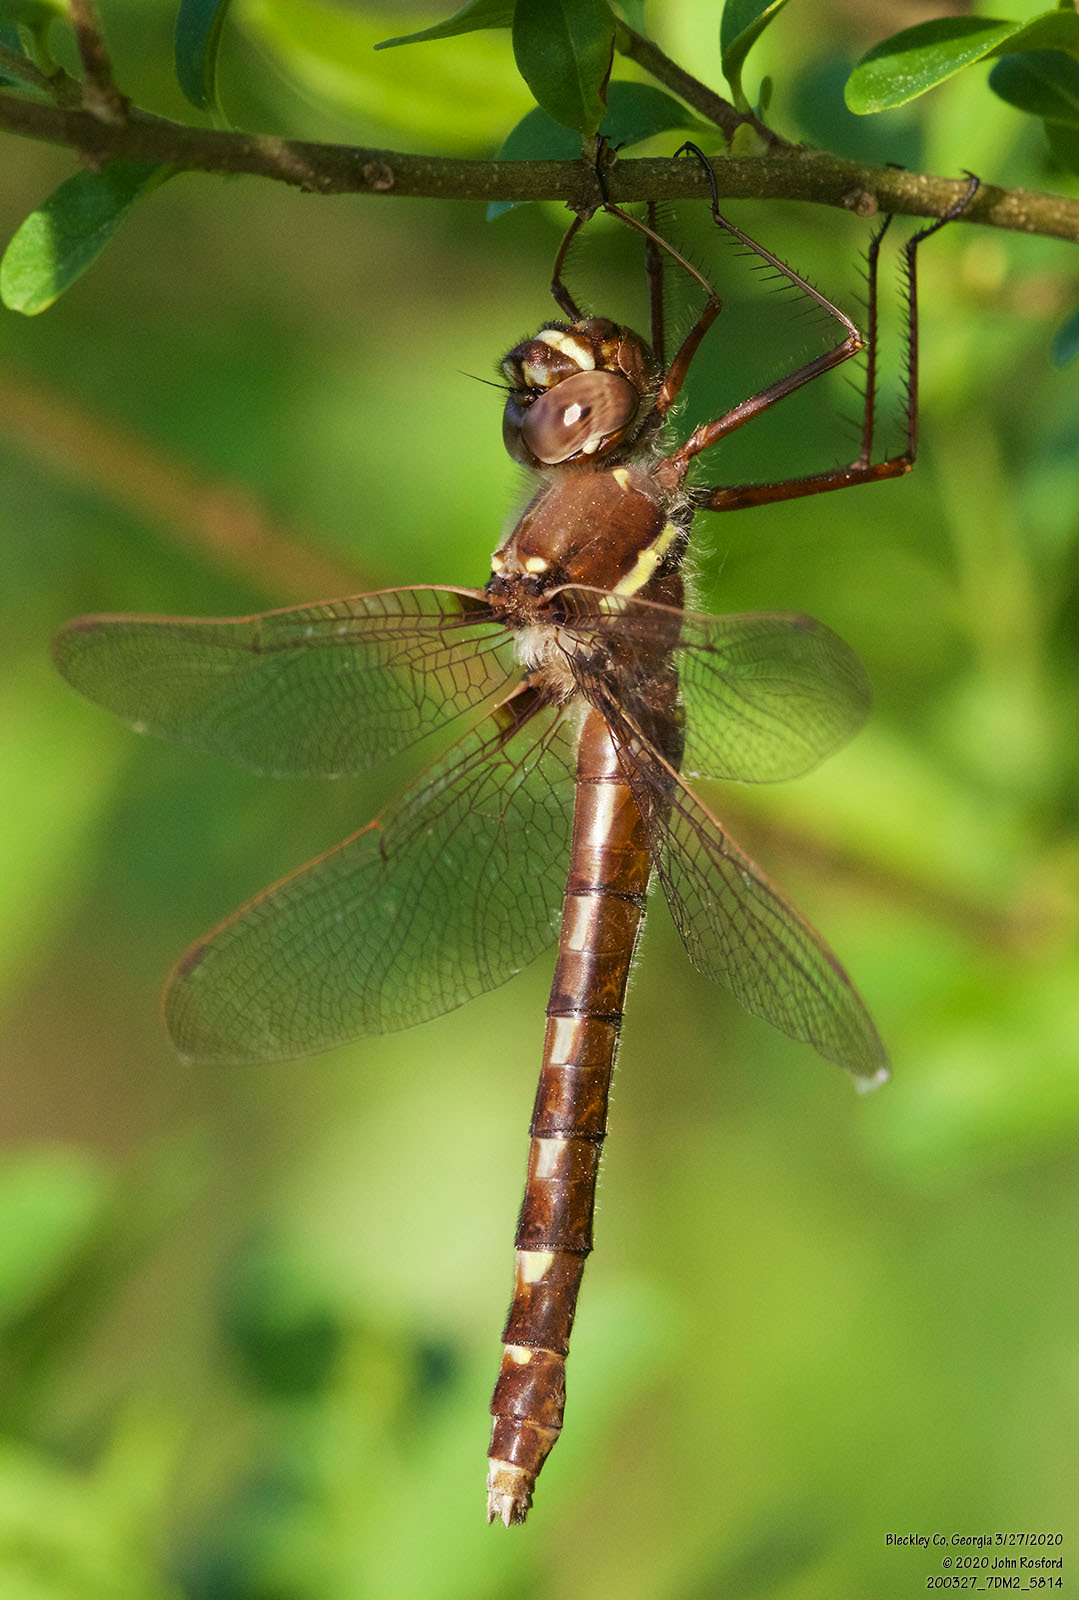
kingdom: Animalia
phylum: Arthropoda
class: Insecta
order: Odonata
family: Macromiidae
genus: Didymops
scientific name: Didymops transversa
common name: Stream cruiser
